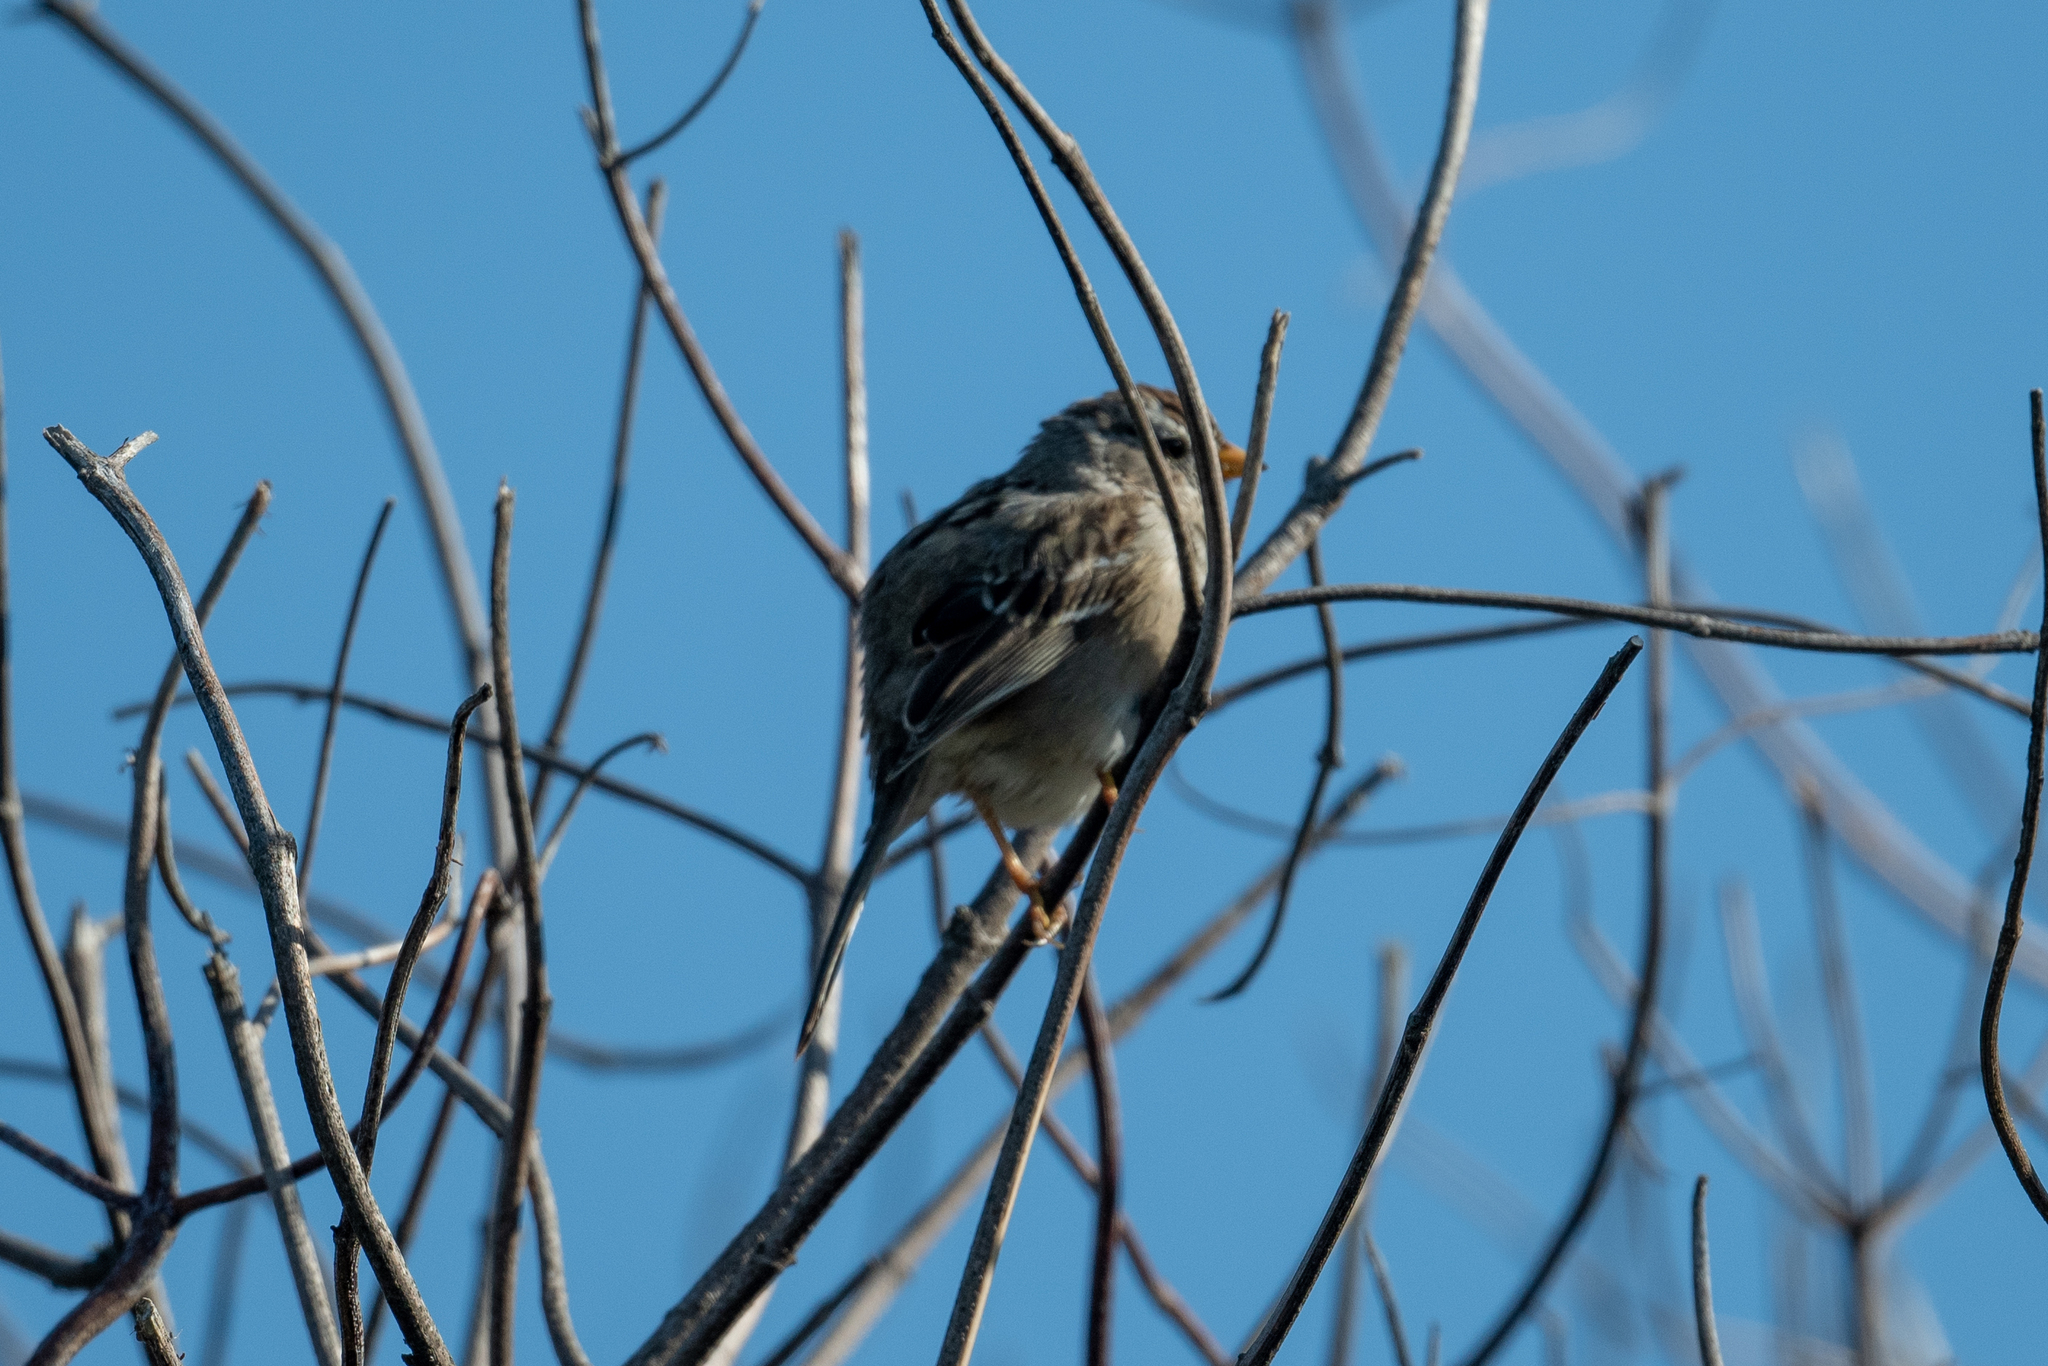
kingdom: Animalia
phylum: Chordata
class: Aves
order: Passeriformes
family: Passerellidae
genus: Zonotrichia
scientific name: Zonotrichia leucophrys
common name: White-crowned sparrow
